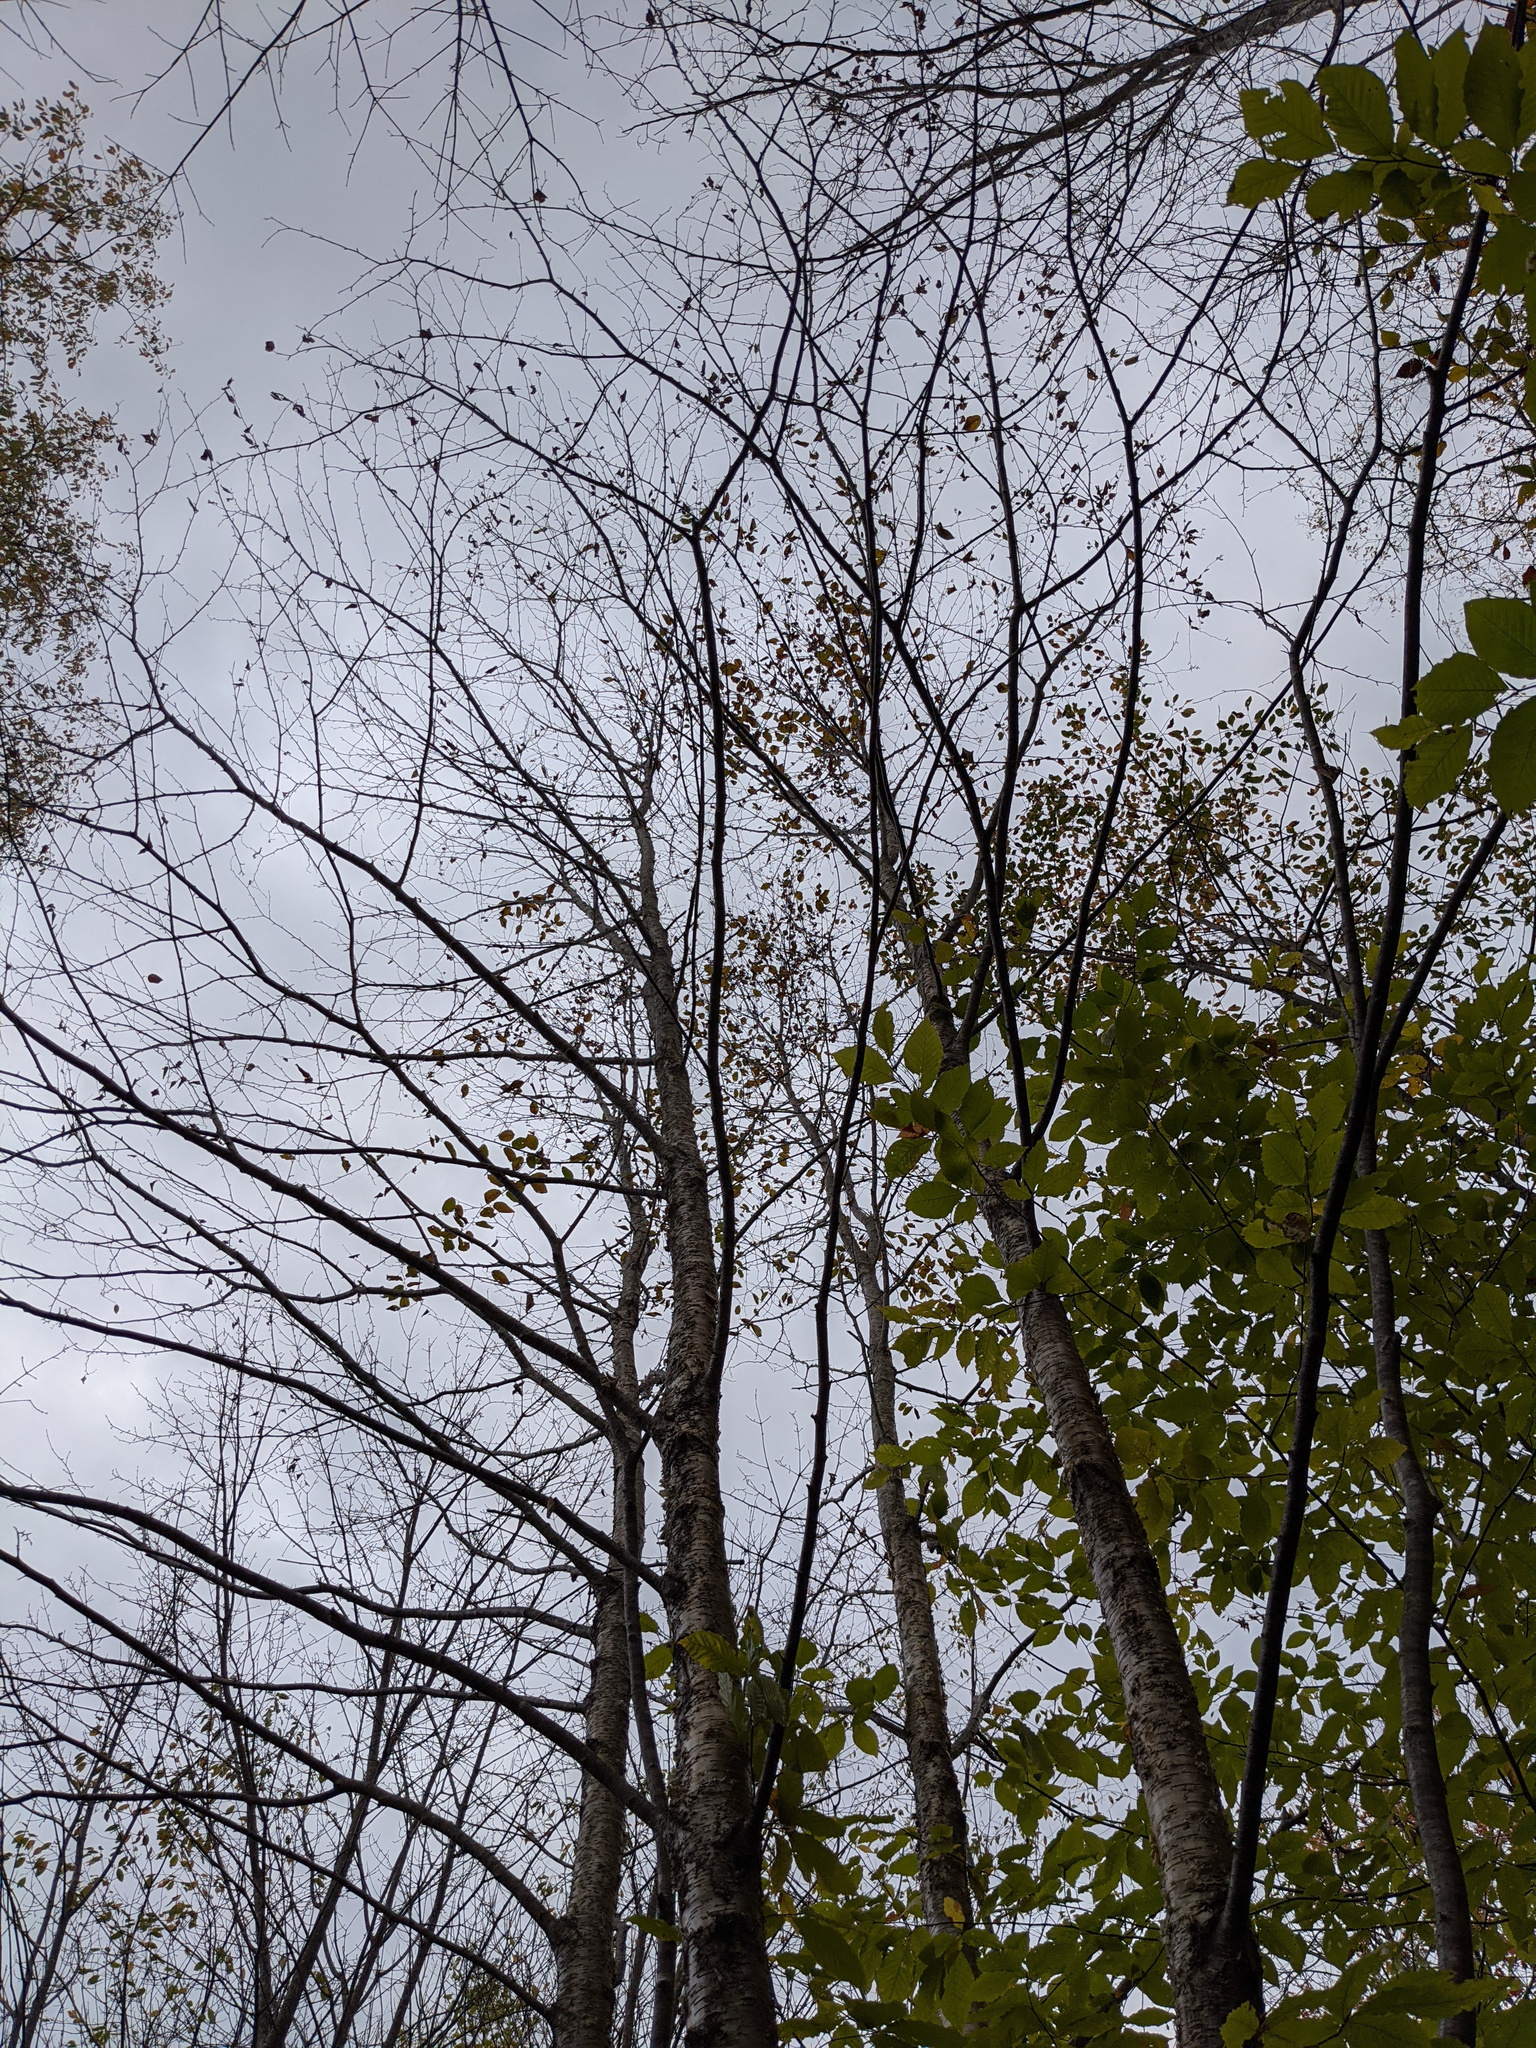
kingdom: Plantae
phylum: Tracheophyta
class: Magnoliopsida
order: Fagales
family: Betulaceae
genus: Betula
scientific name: Betula alleghaniensis
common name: Yellow birch
